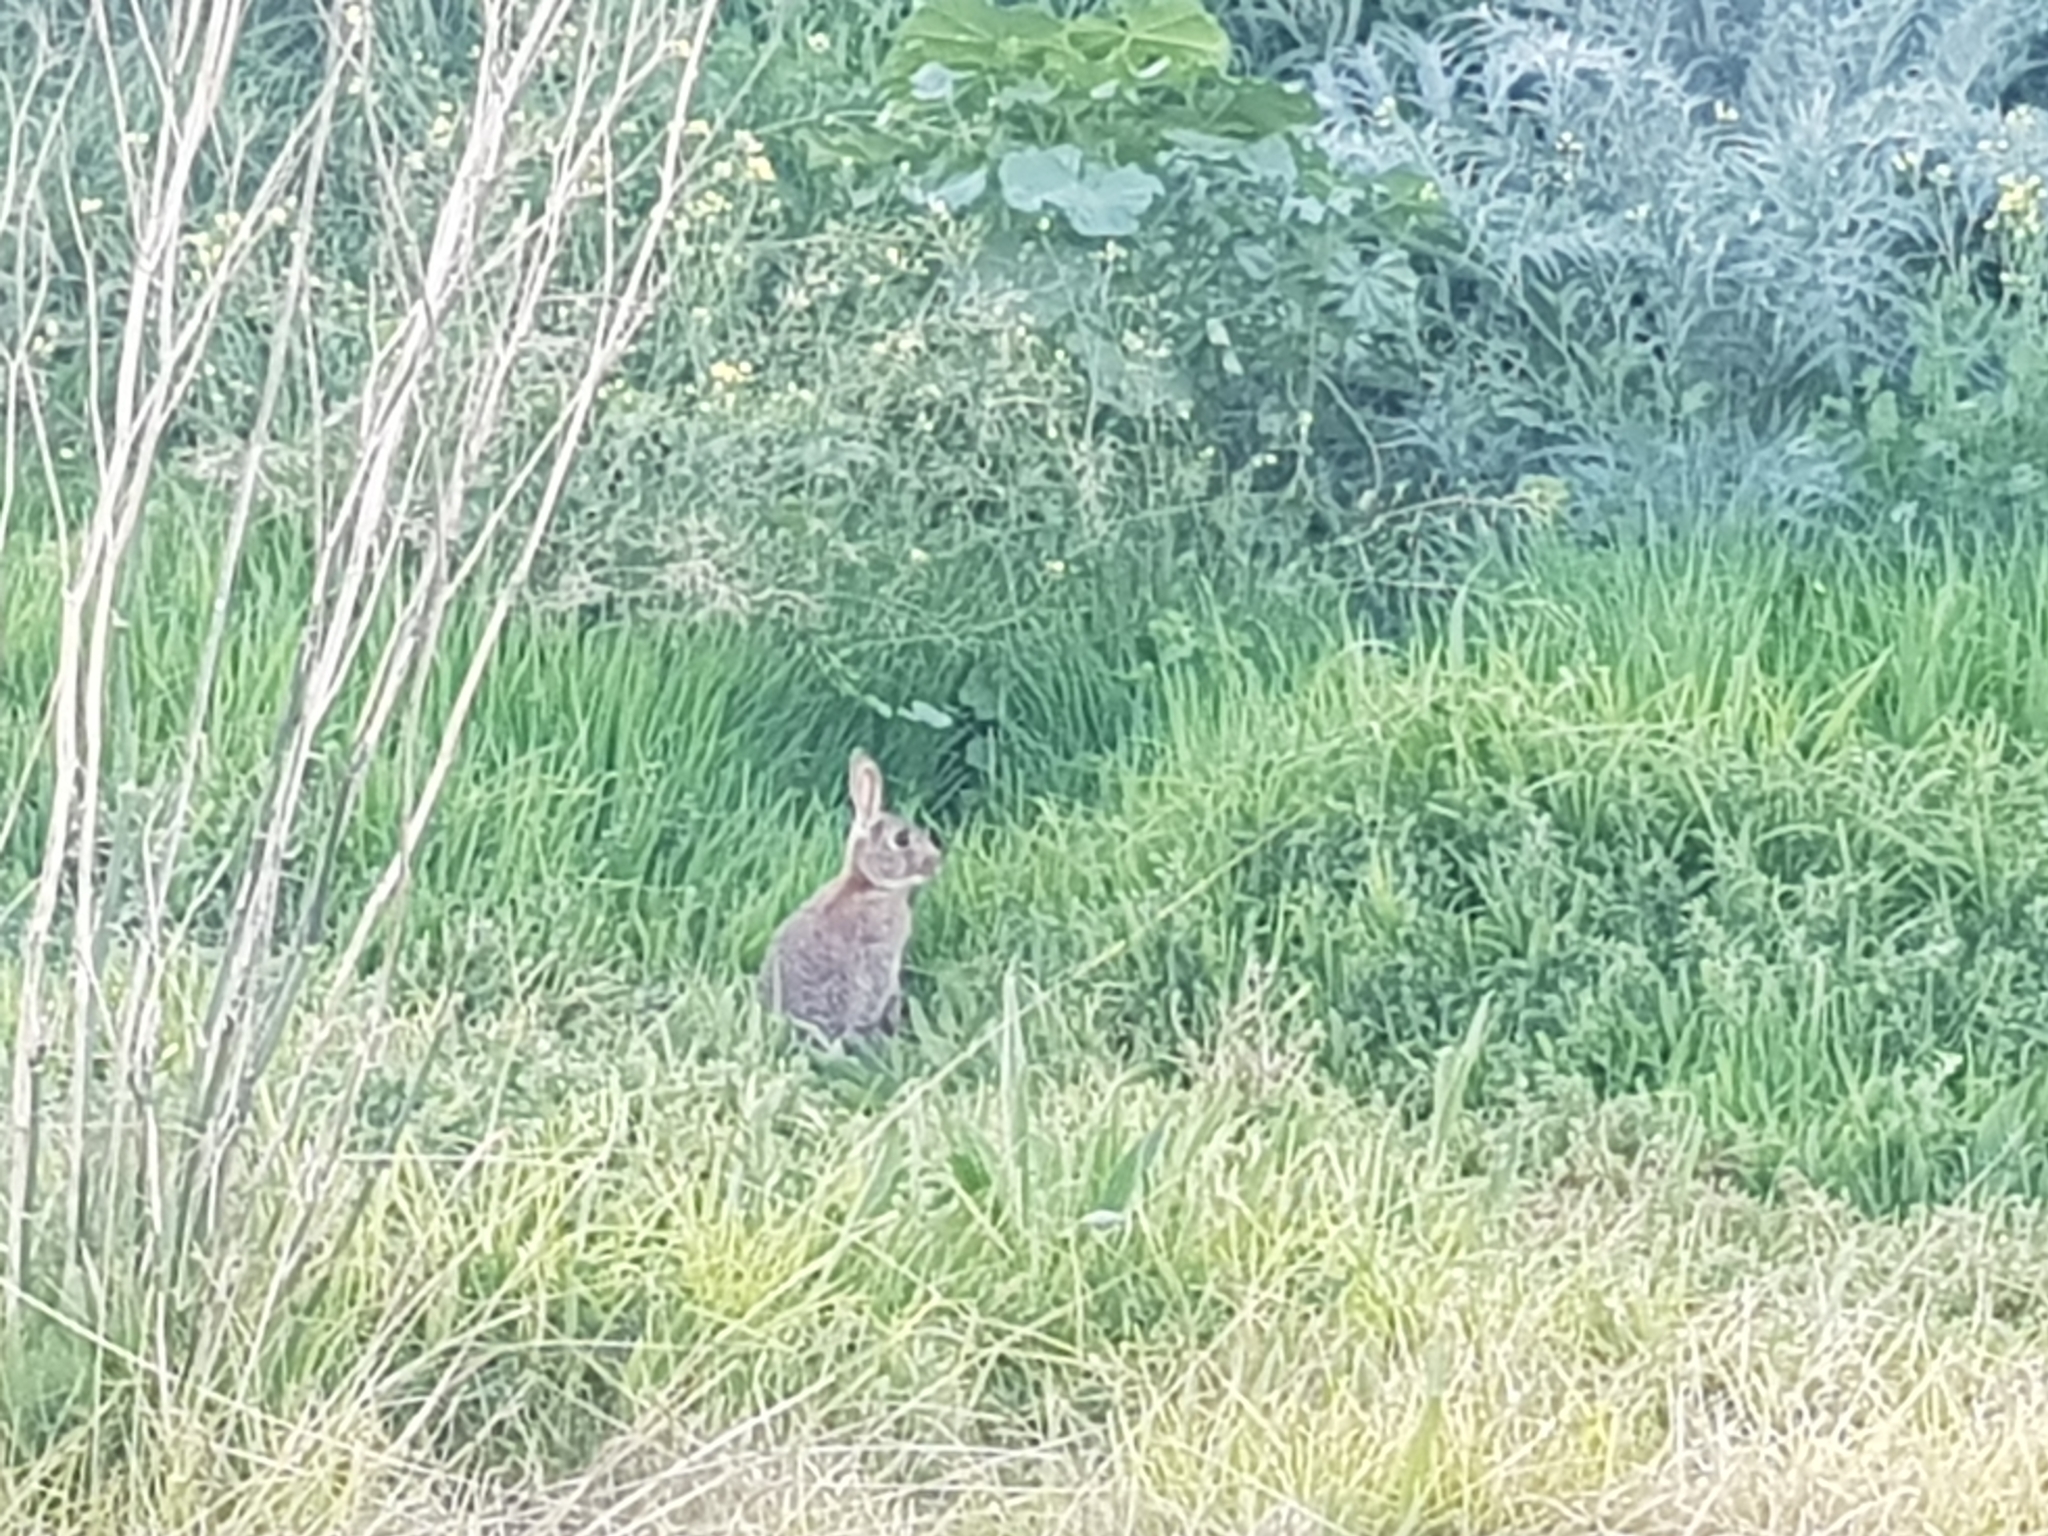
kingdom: Animalia
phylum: Chordata
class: Mammalia
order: Lagomorpha
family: Leporidae
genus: Oryctolagus
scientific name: Oryctolagus cuniculus
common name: European rabbit
